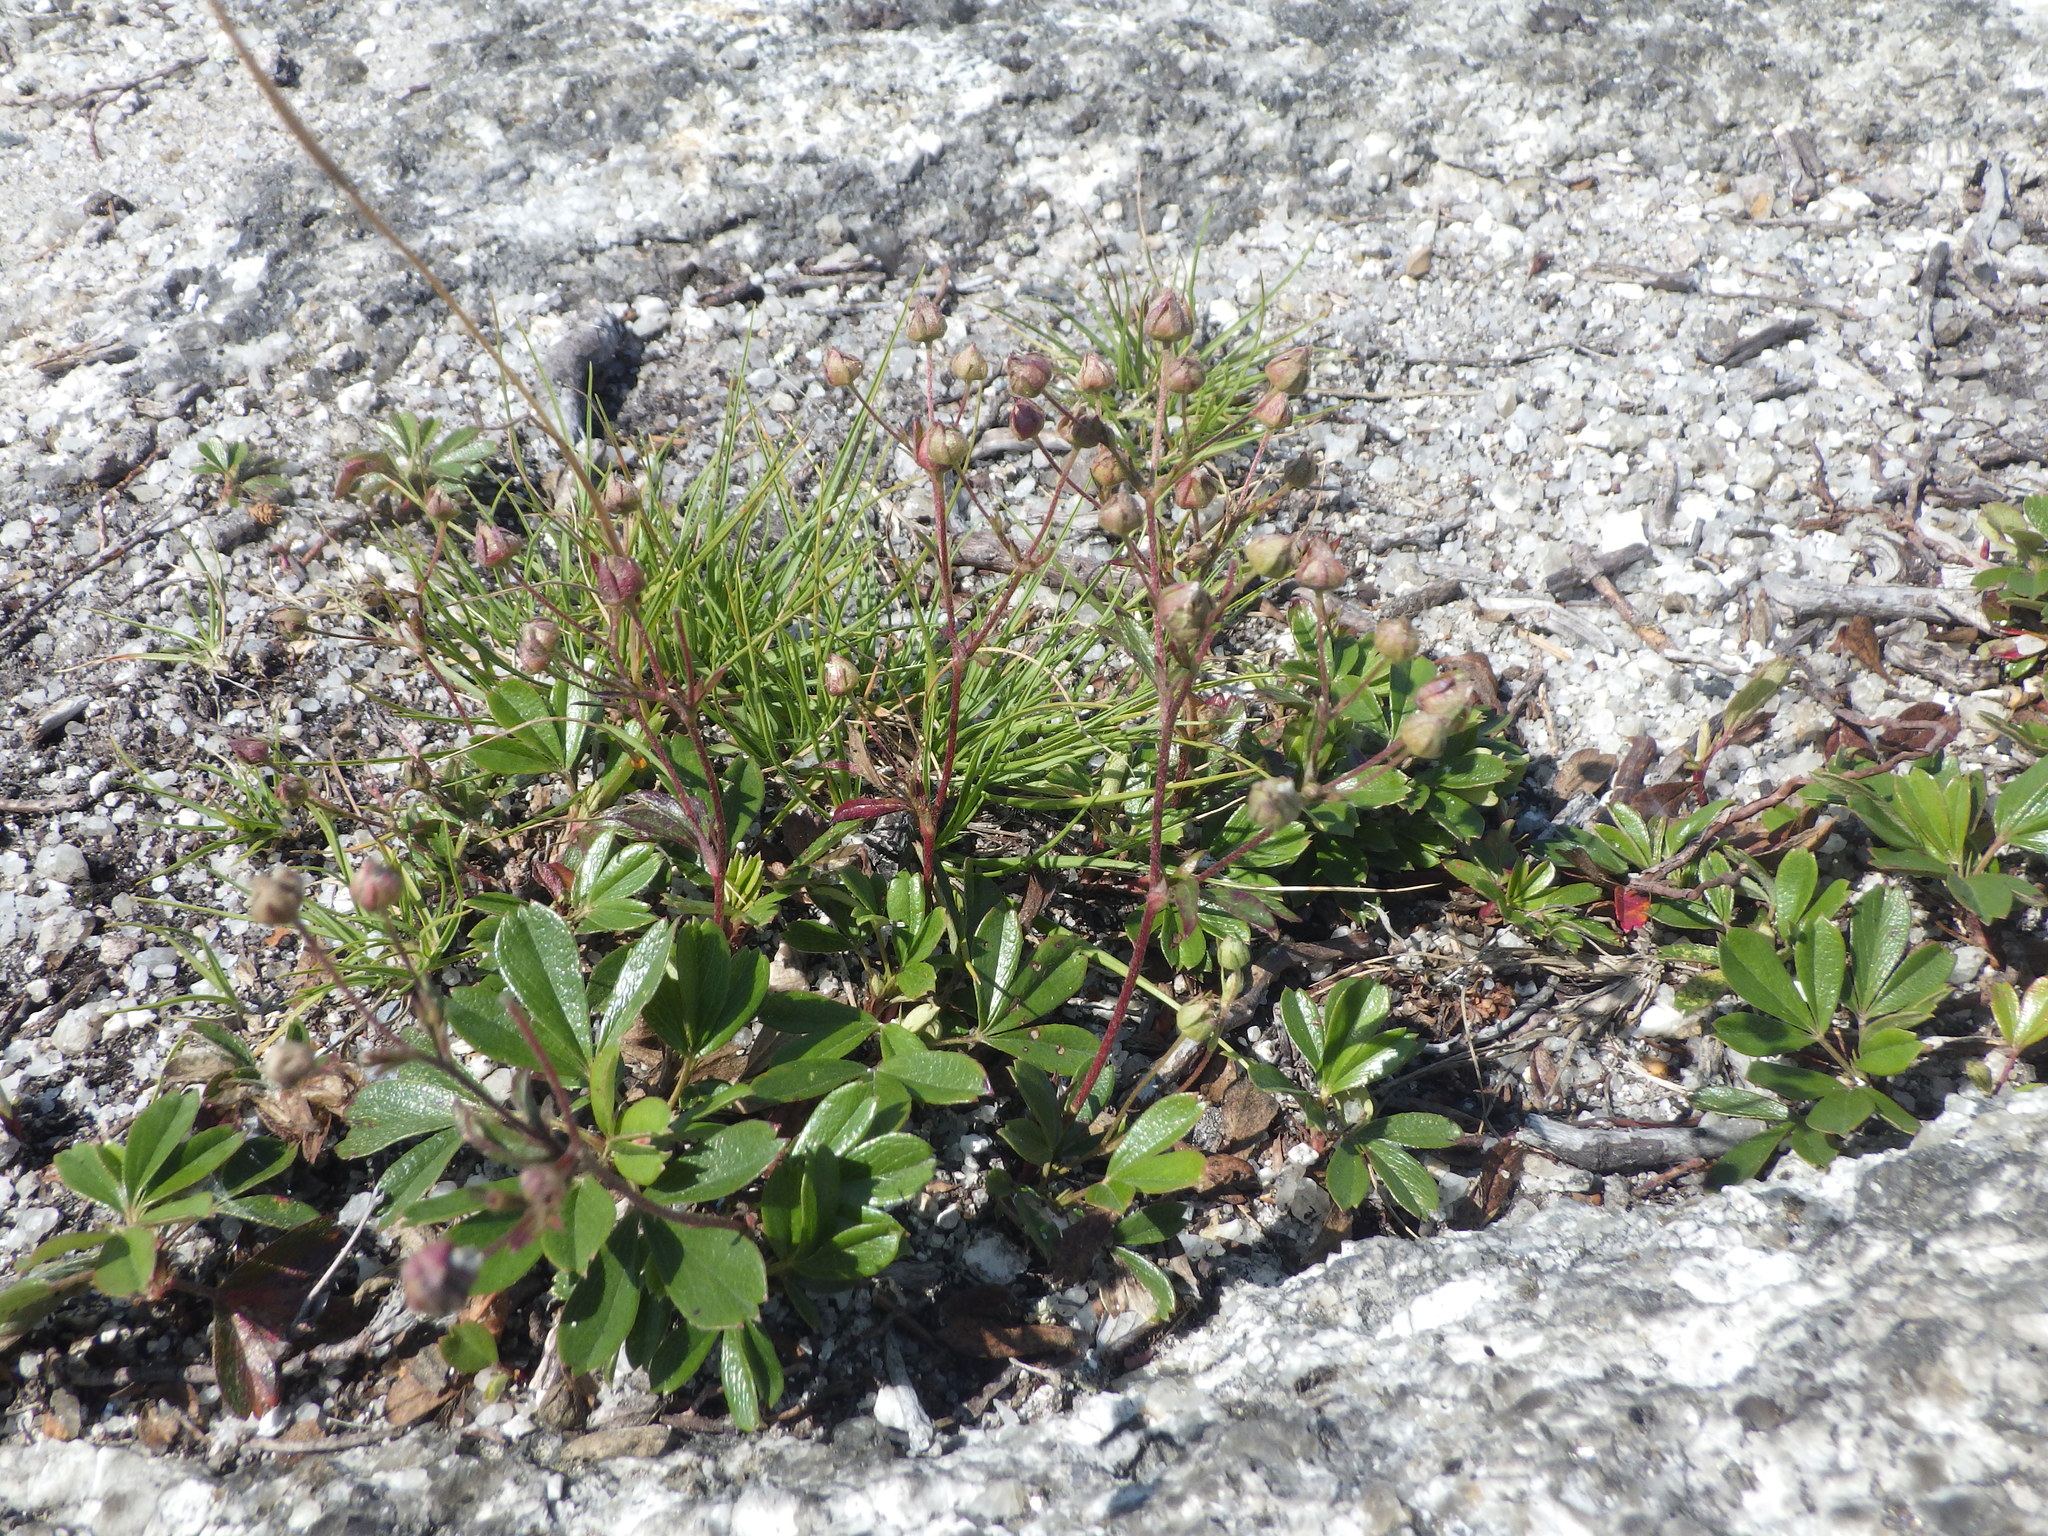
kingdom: Plantae
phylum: Tracheophyta
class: Magnoliopsida
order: Rosales
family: Rosaceae
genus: Sibbaldia
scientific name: Sibbaldia tridentata
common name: Three-toothed cinquefoil
